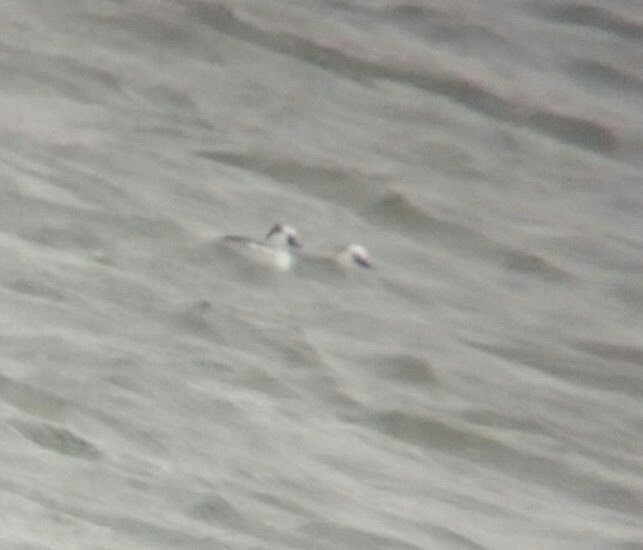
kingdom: Animalia
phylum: Chordata
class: Aves
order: Anseriformes
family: Anatidae
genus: Mergellus
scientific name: Mergellus albellus
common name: Smew
